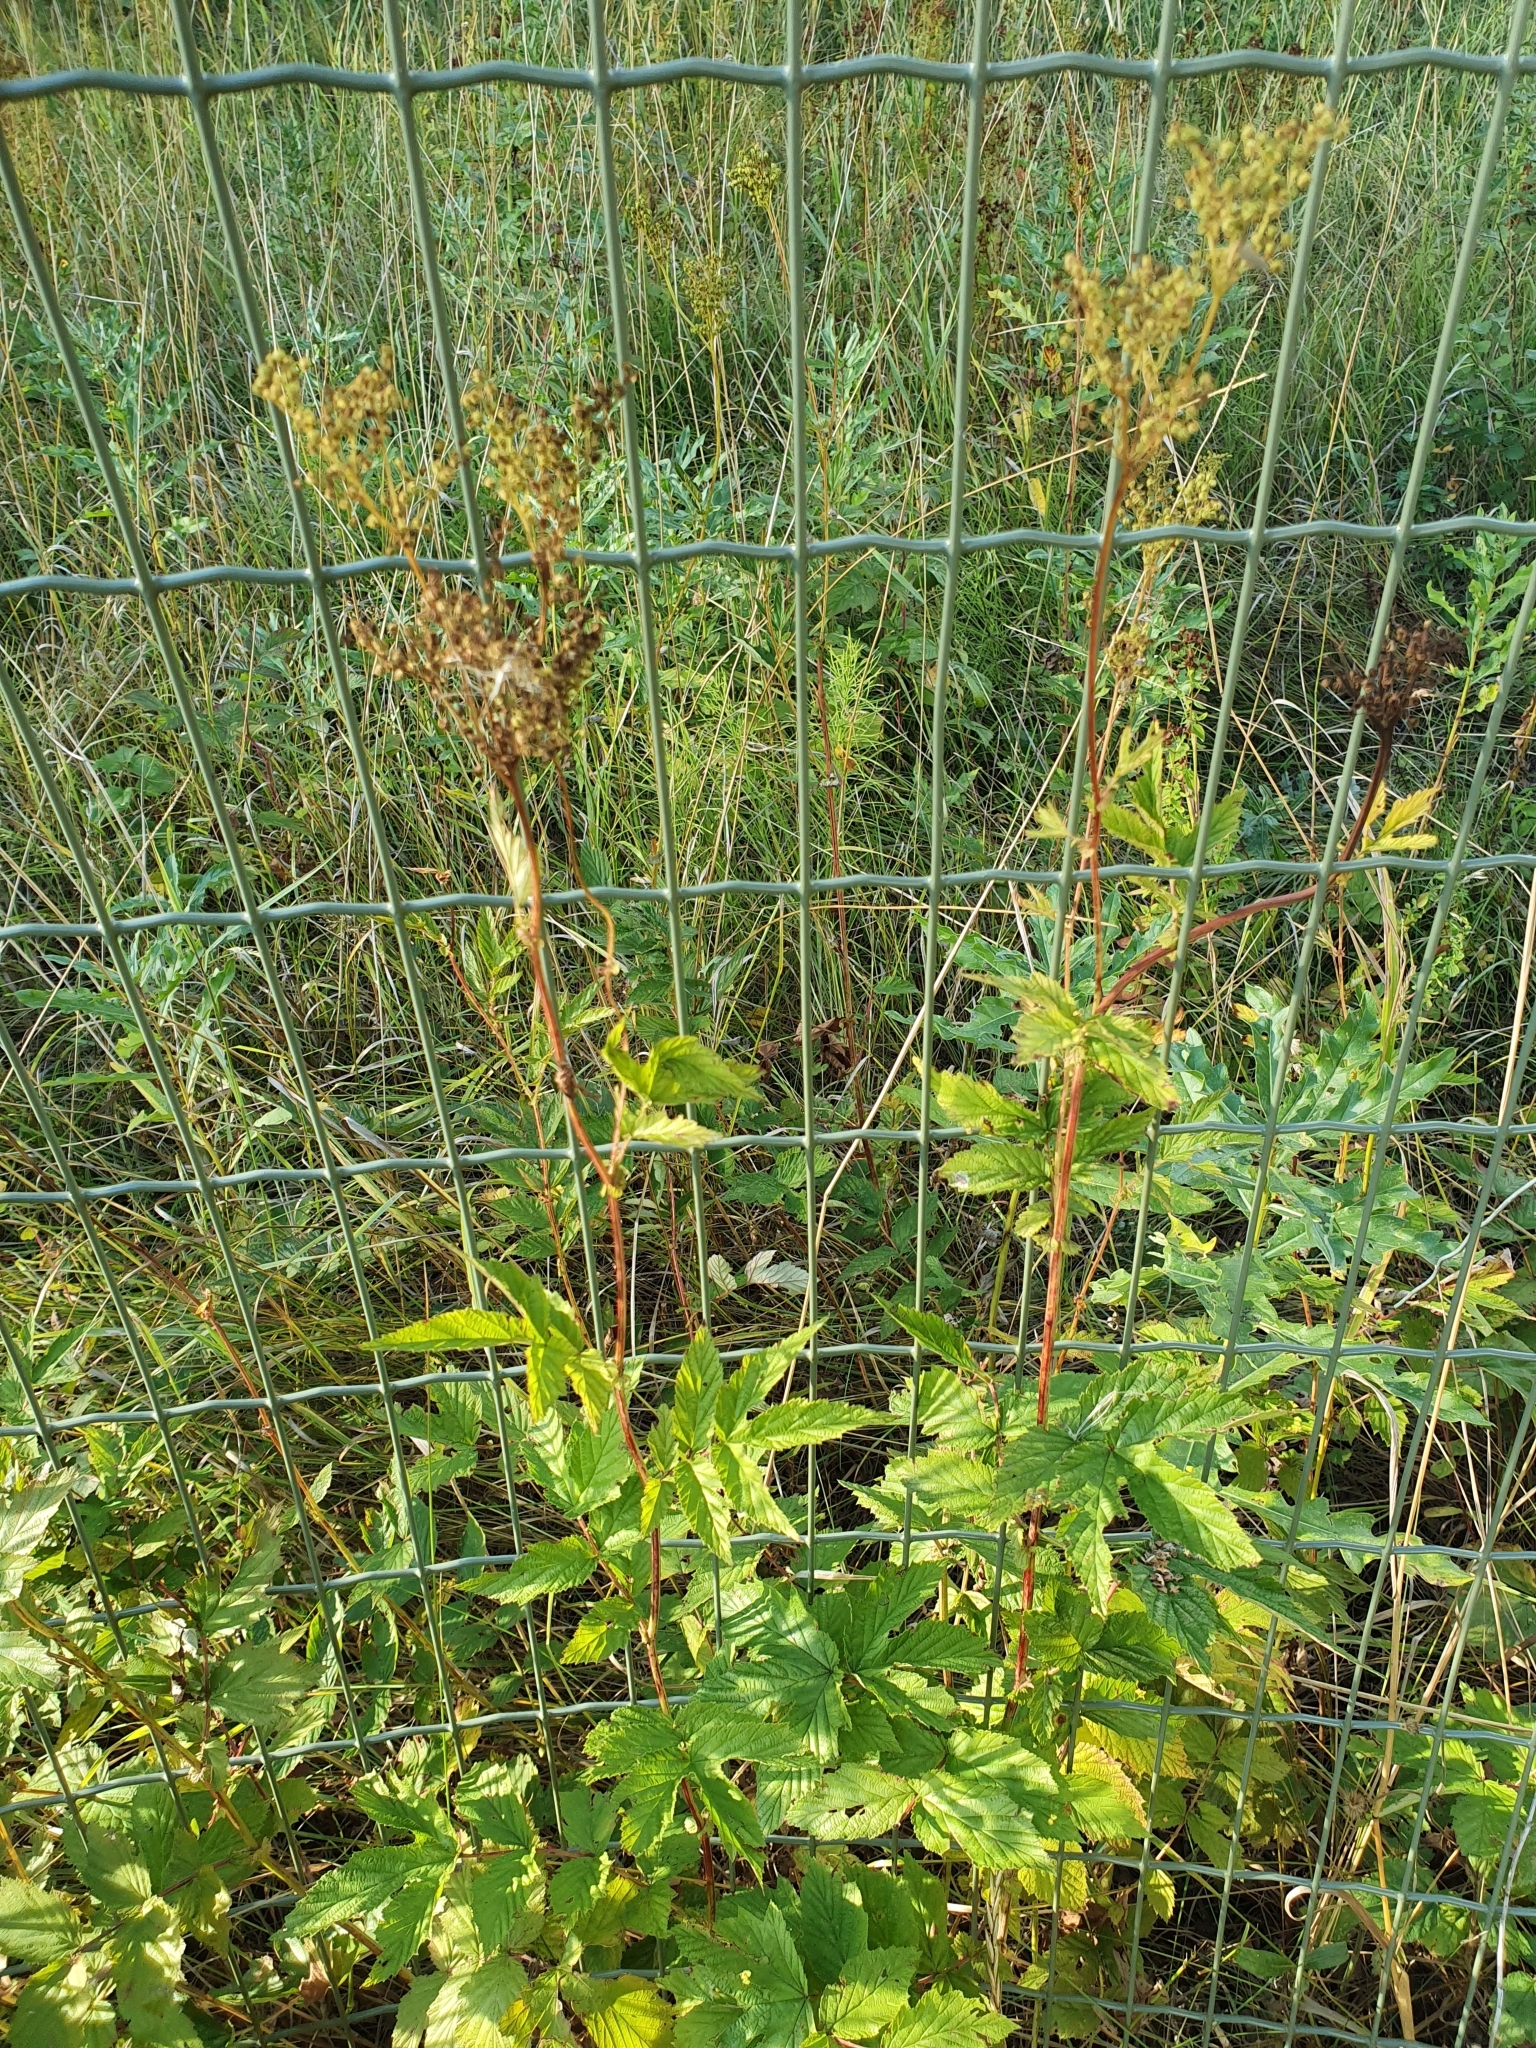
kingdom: Plantae
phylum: Tracheophyta
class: Magnoliopsida
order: Rosales
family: Rosaceae
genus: Filipendula
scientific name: Filipendula ulmaria
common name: Meadowsweet
